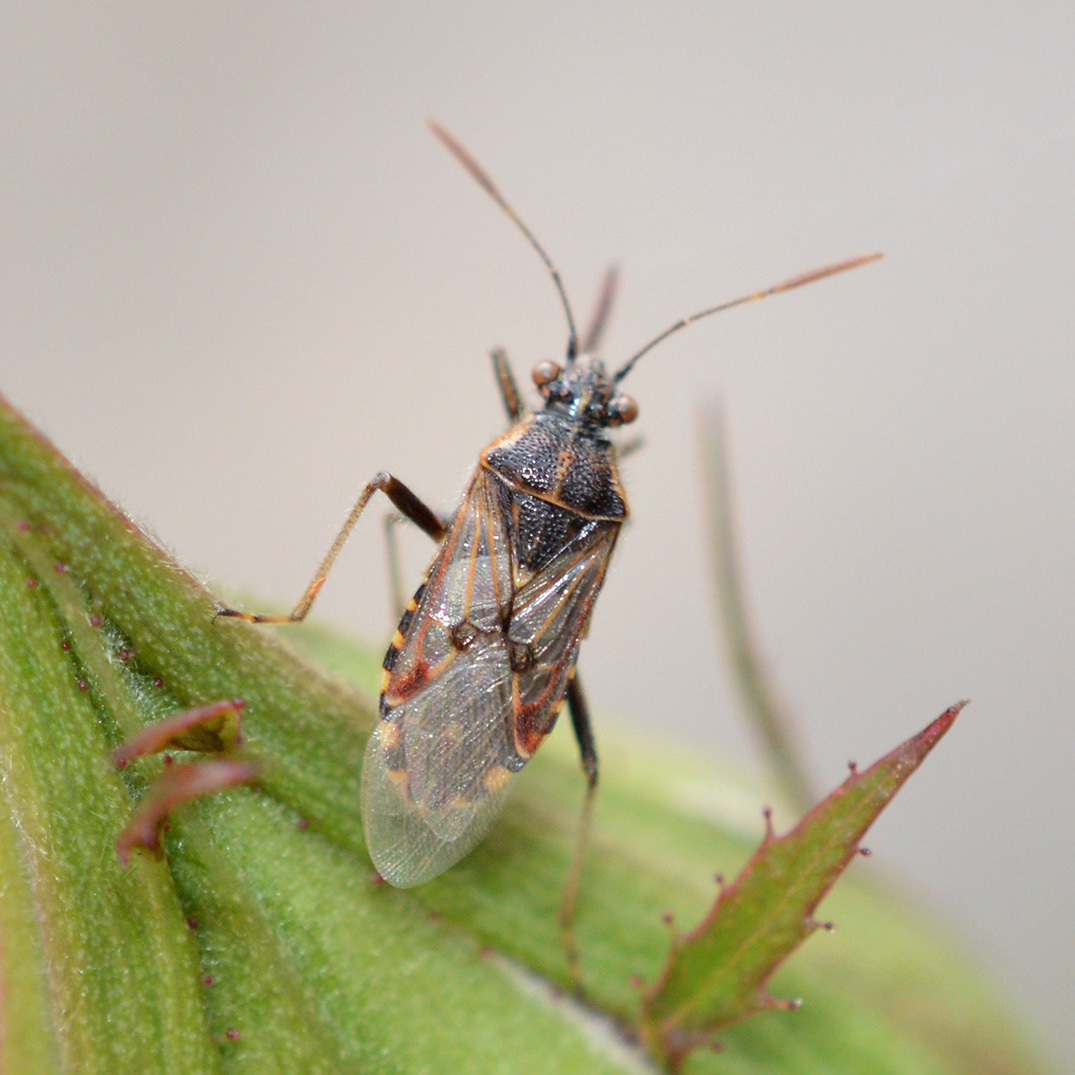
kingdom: Animalia
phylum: Arthropoda
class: Insecta
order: Hemiptera
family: Rhopalidae
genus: Liorhyssus
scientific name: Liorhyssus hyalinus
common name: Scentless plant bug
